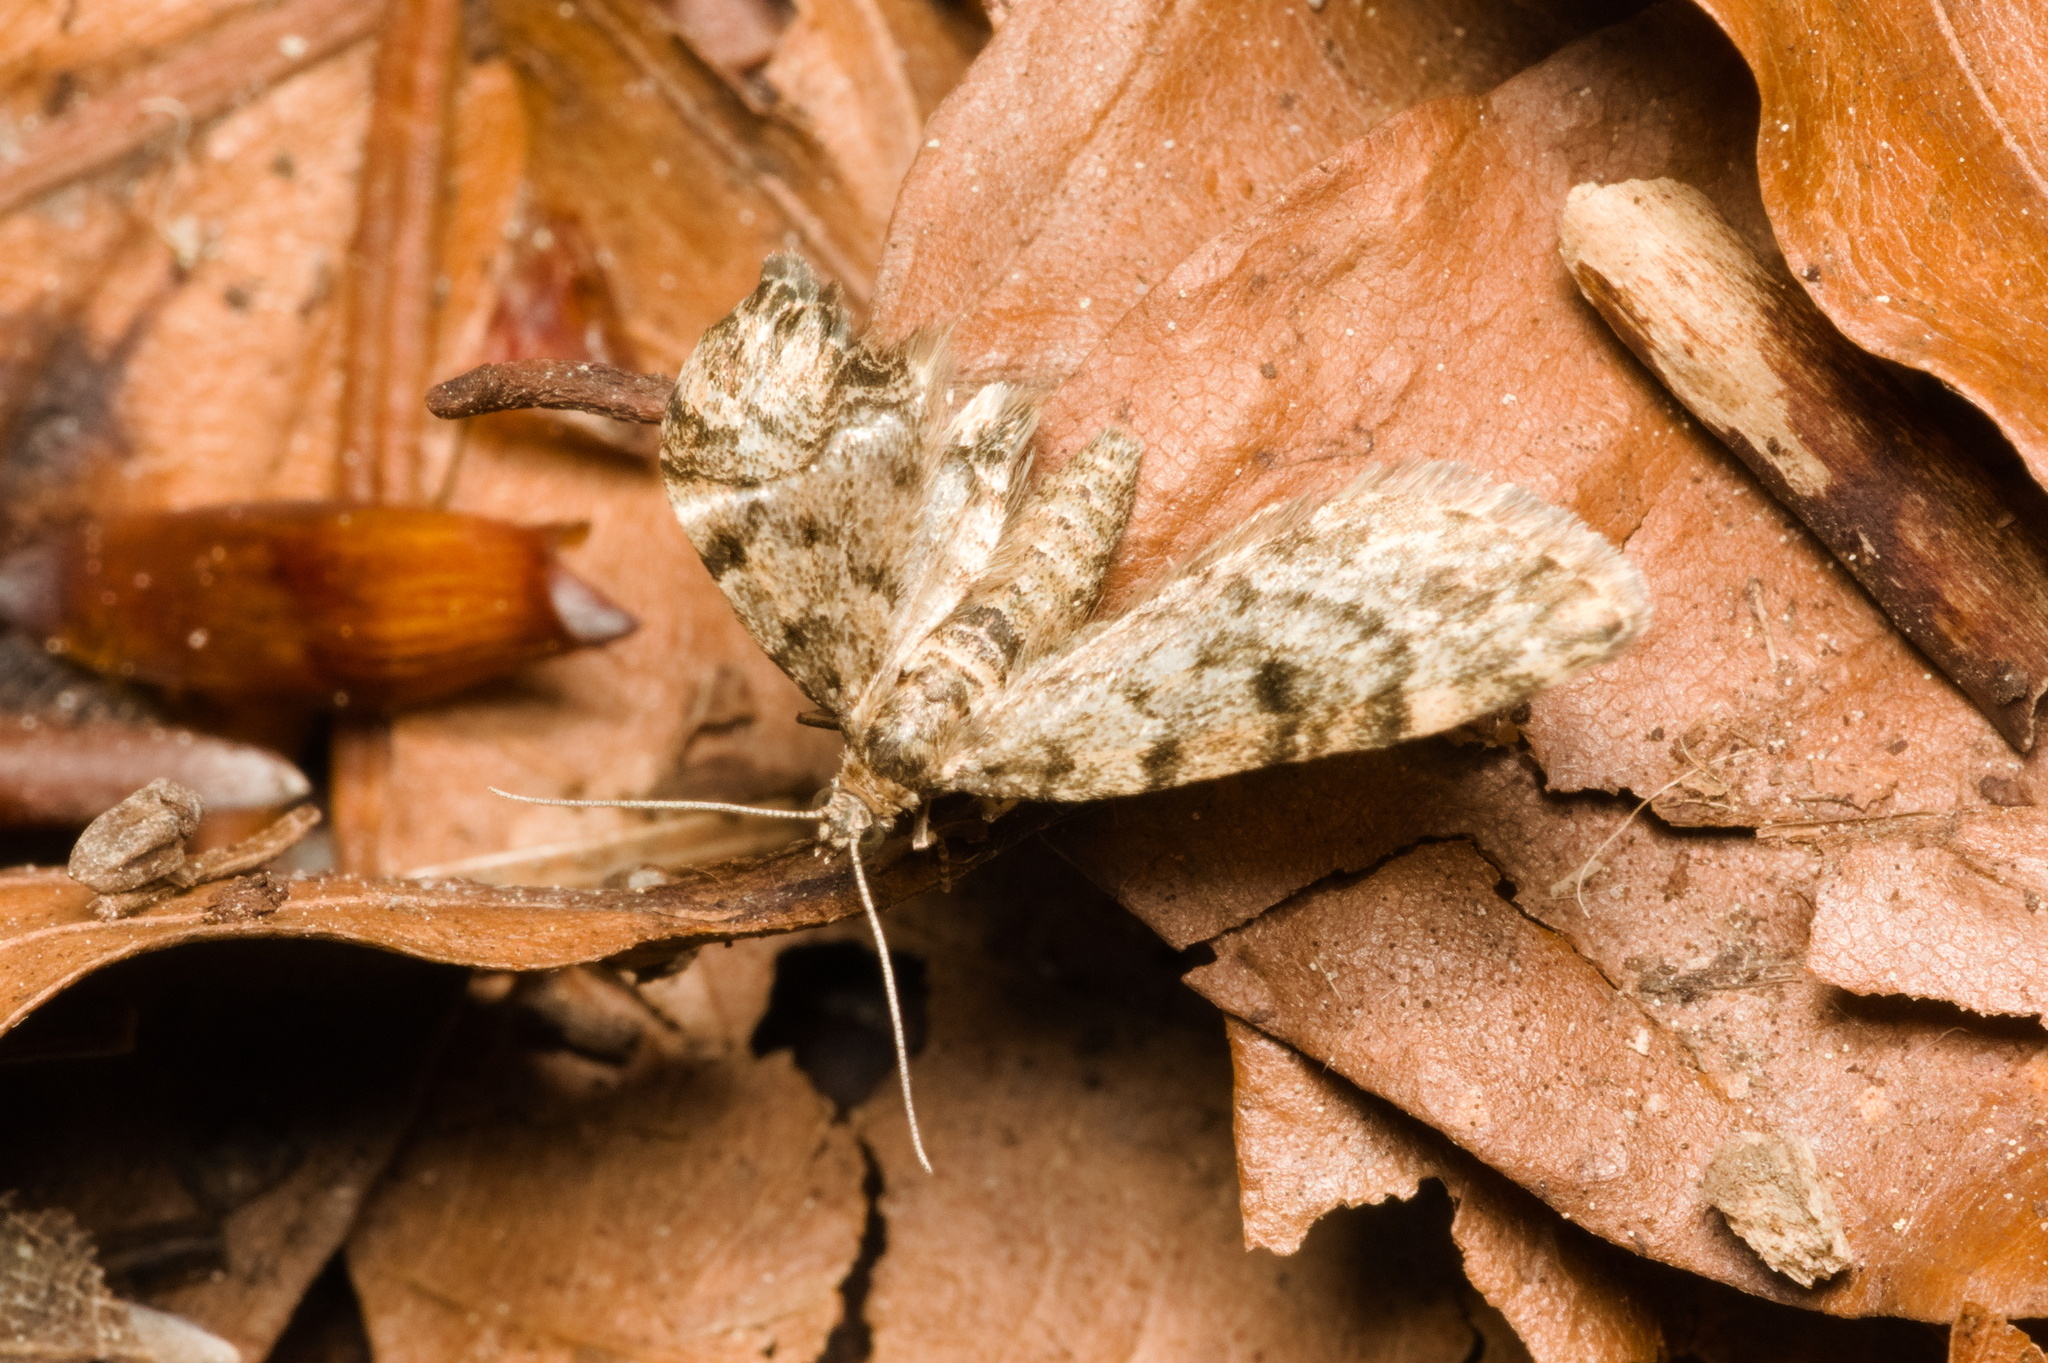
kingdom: Animalia
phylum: Arthropoda
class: Insecta
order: Lepidoptera
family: Geometridae
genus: Eupithecia
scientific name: Eupithecia tantillaria
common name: Dwarf pug
